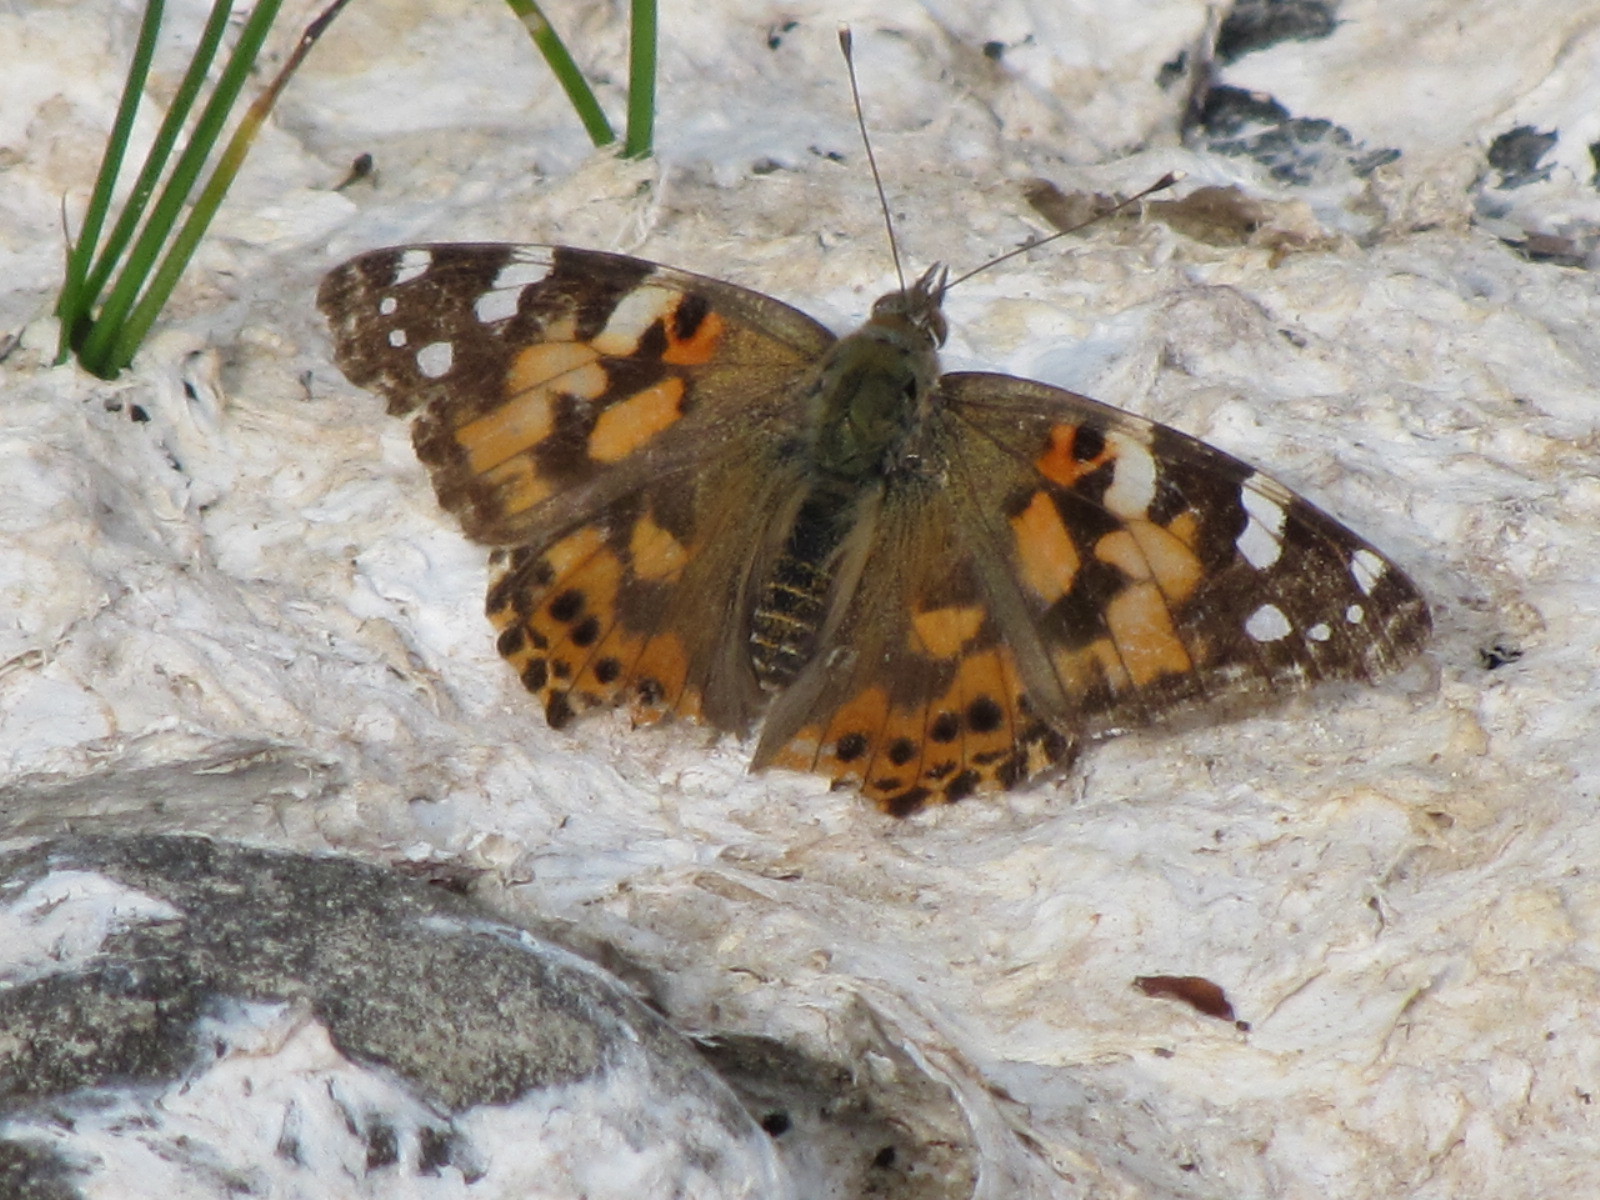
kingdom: Animalia
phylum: Arthropoda
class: Insecta
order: Lepidoptera
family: Nymphalidae
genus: Vanessa
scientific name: Vanessa cardui
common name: Painted lady
